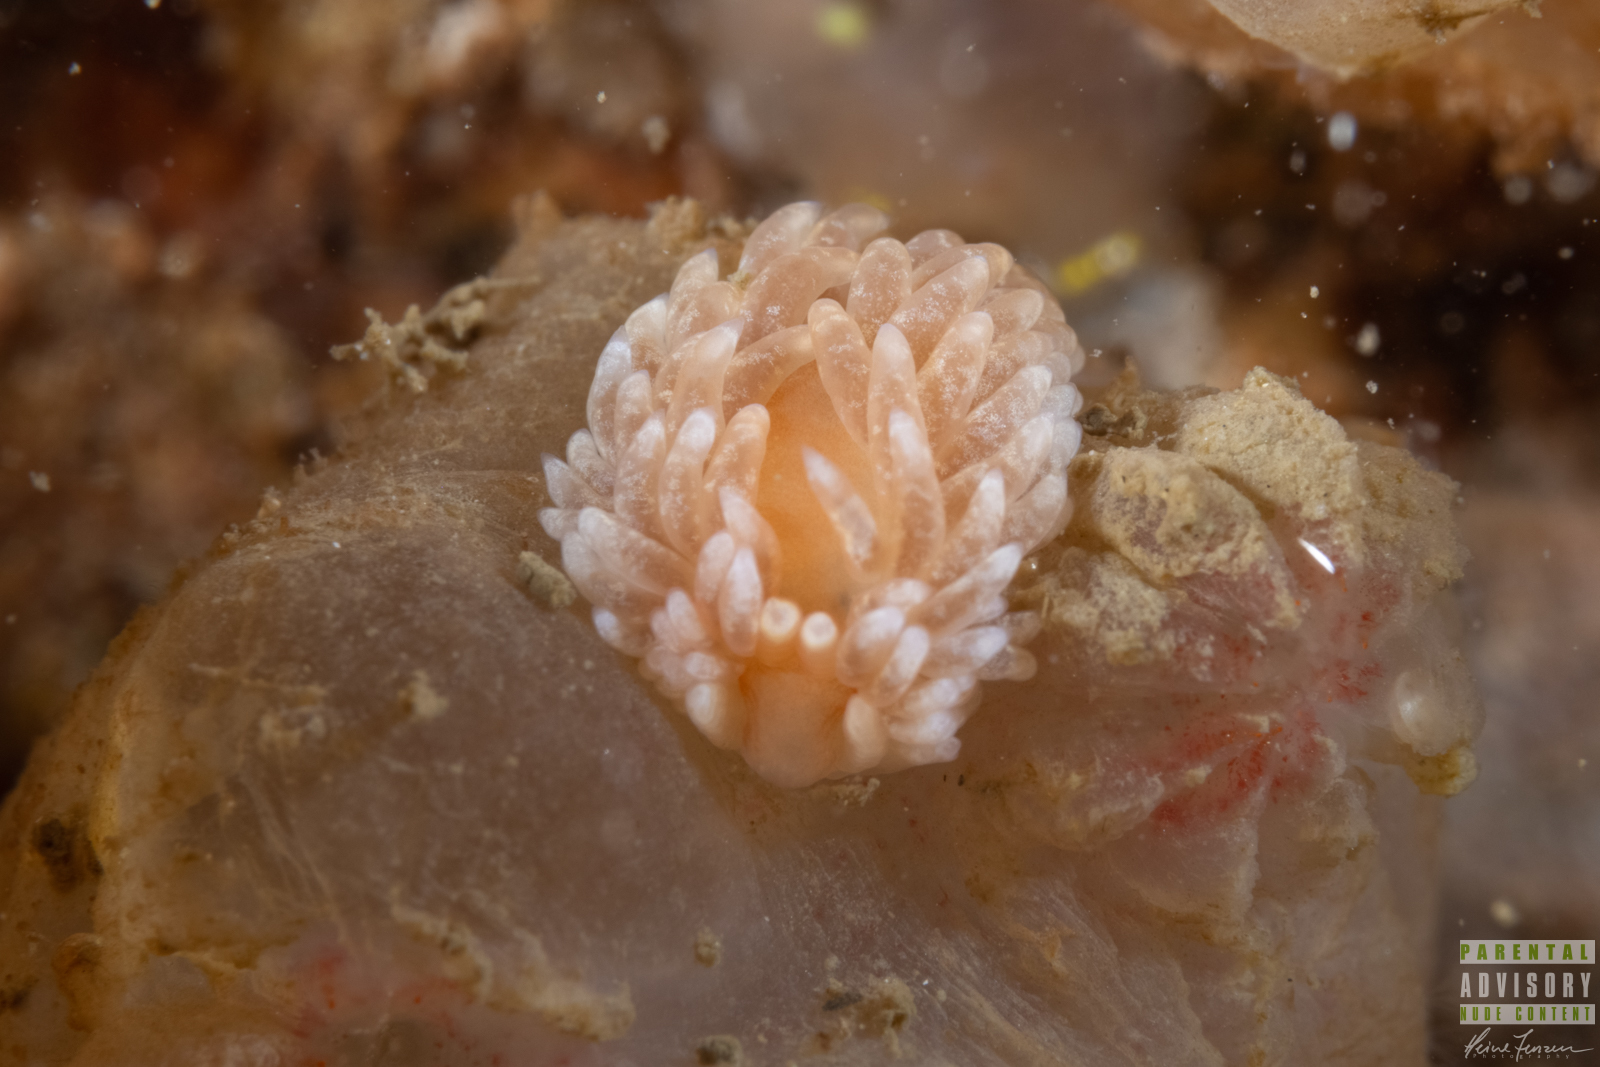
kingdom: Animalia
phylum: Mollusca
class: Gastropoda
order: Nudibranchia
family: Aeolidiidae
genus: Aeolidiella
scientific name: Aeolidiella glauca
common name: Orange-brown aeolid
